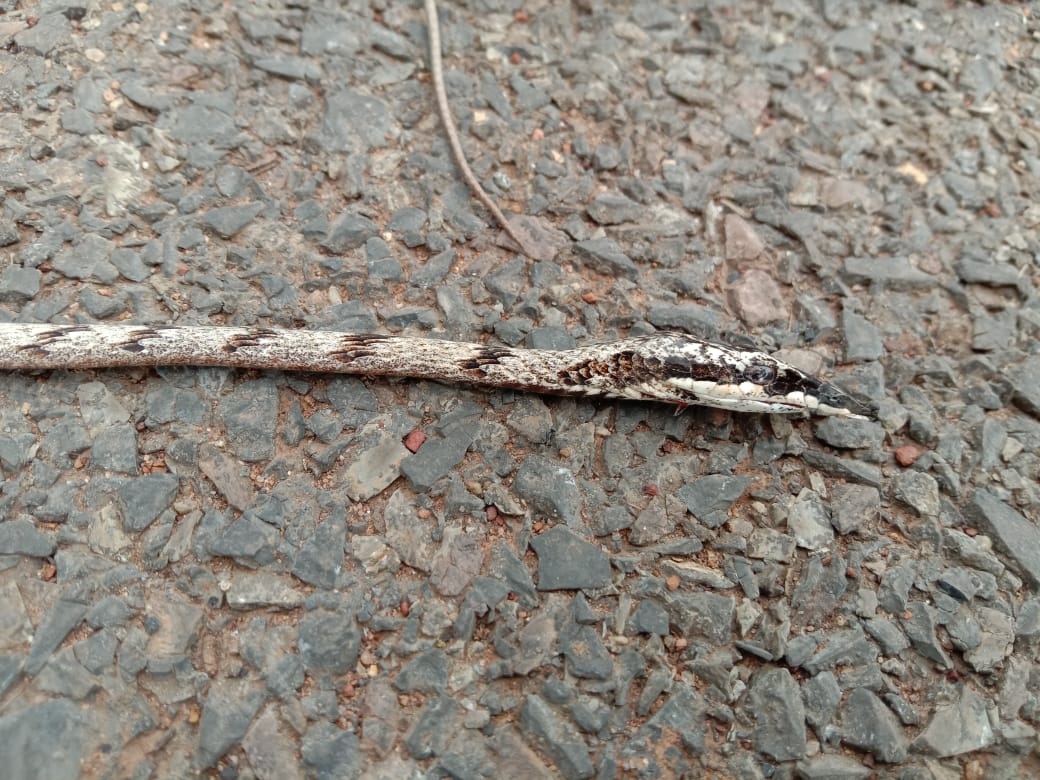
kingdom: Animalia
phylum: Chordata
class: Squamata
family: Colubridae
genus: Ahaetulla
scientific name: Ahaetulla anomala
